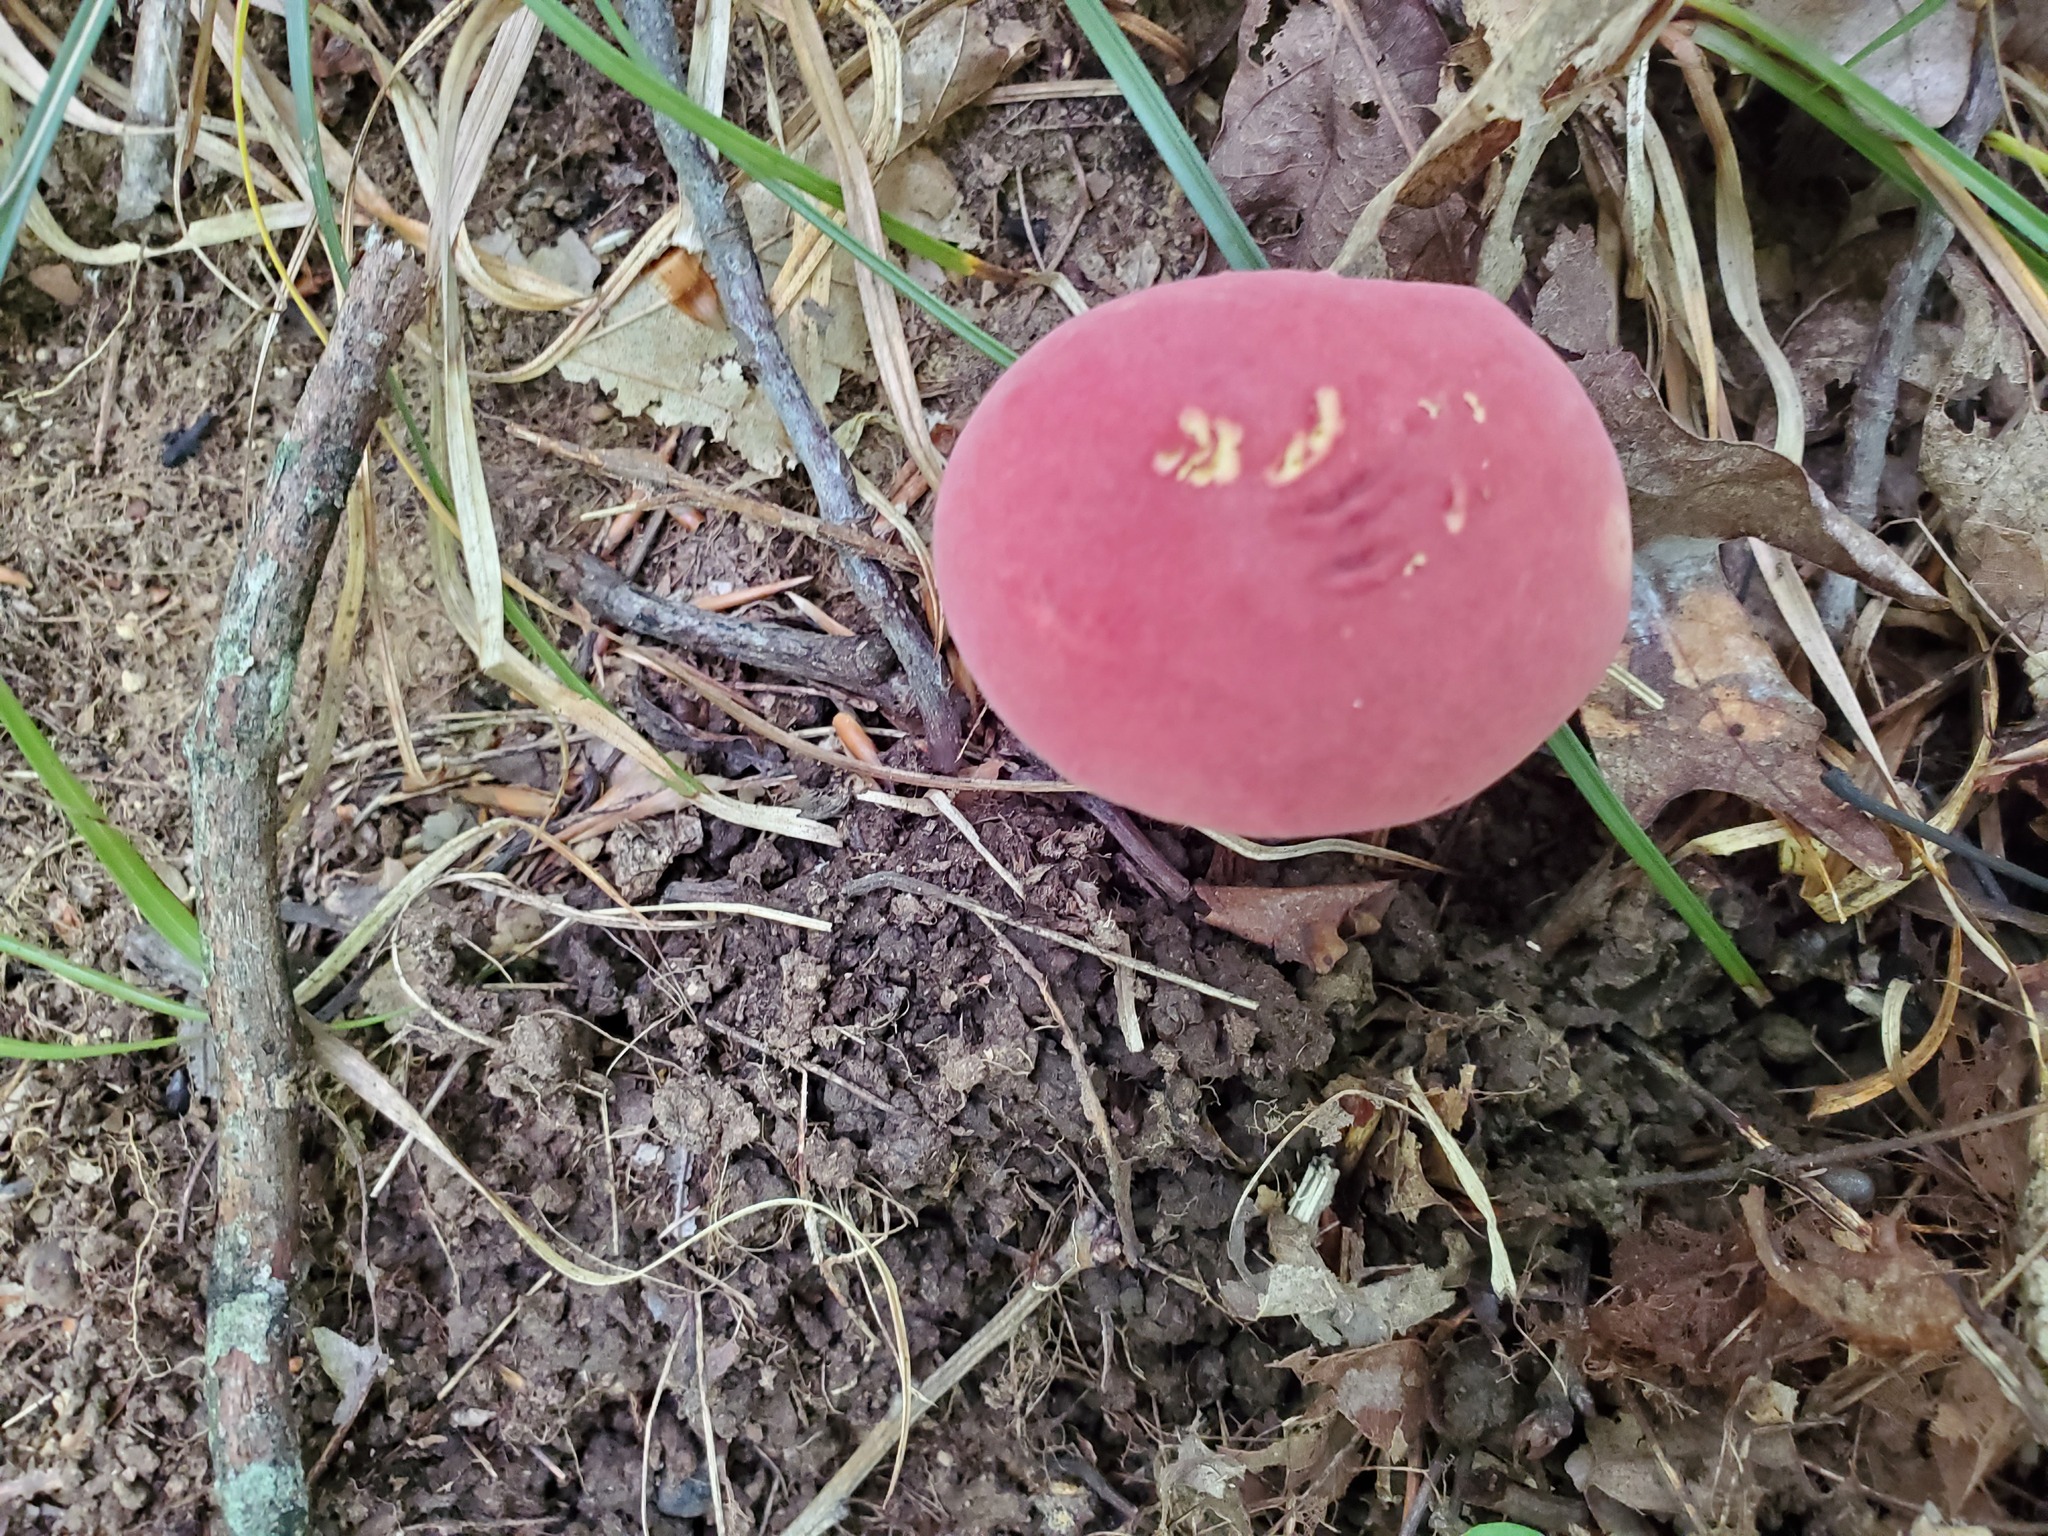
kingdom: Fungi
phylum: Basidiomycota
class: Agaricomycetes
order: Boletales
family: Boletaceae
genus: Lanmaoa
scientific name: Lanmaoa pallidorosea
